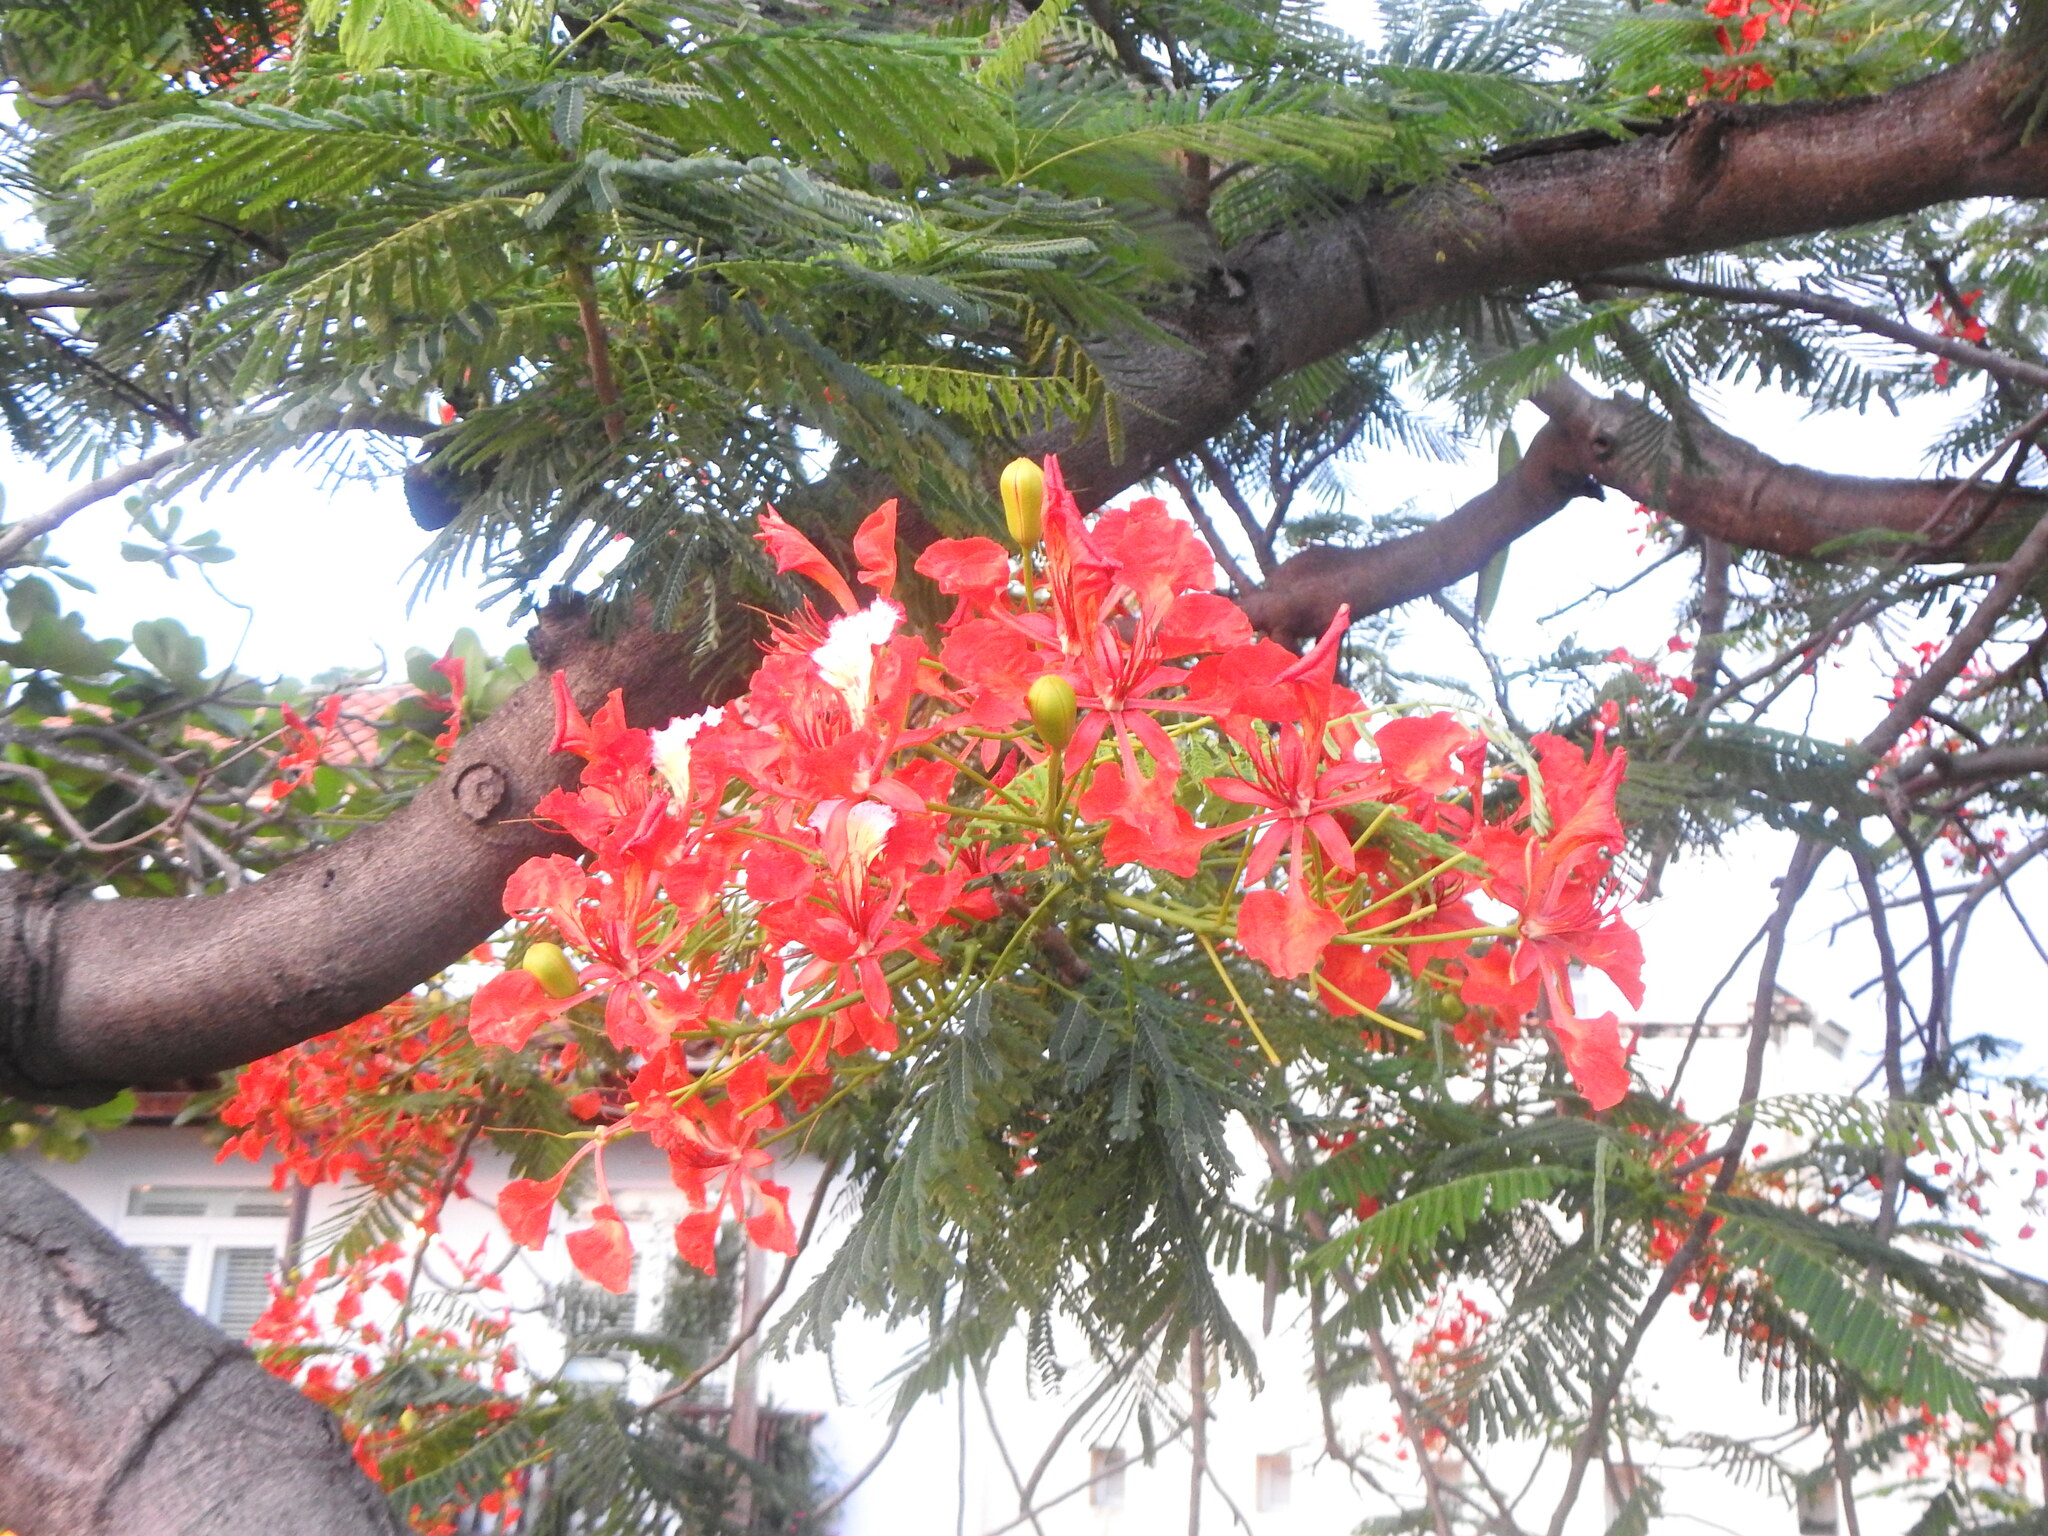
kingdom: Plantae
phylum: Tracheophyta
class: Magnoliopsida
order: Fabales
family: Fabaceae
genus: Delonix
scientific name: Delonix regia
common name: Royal poinciana
